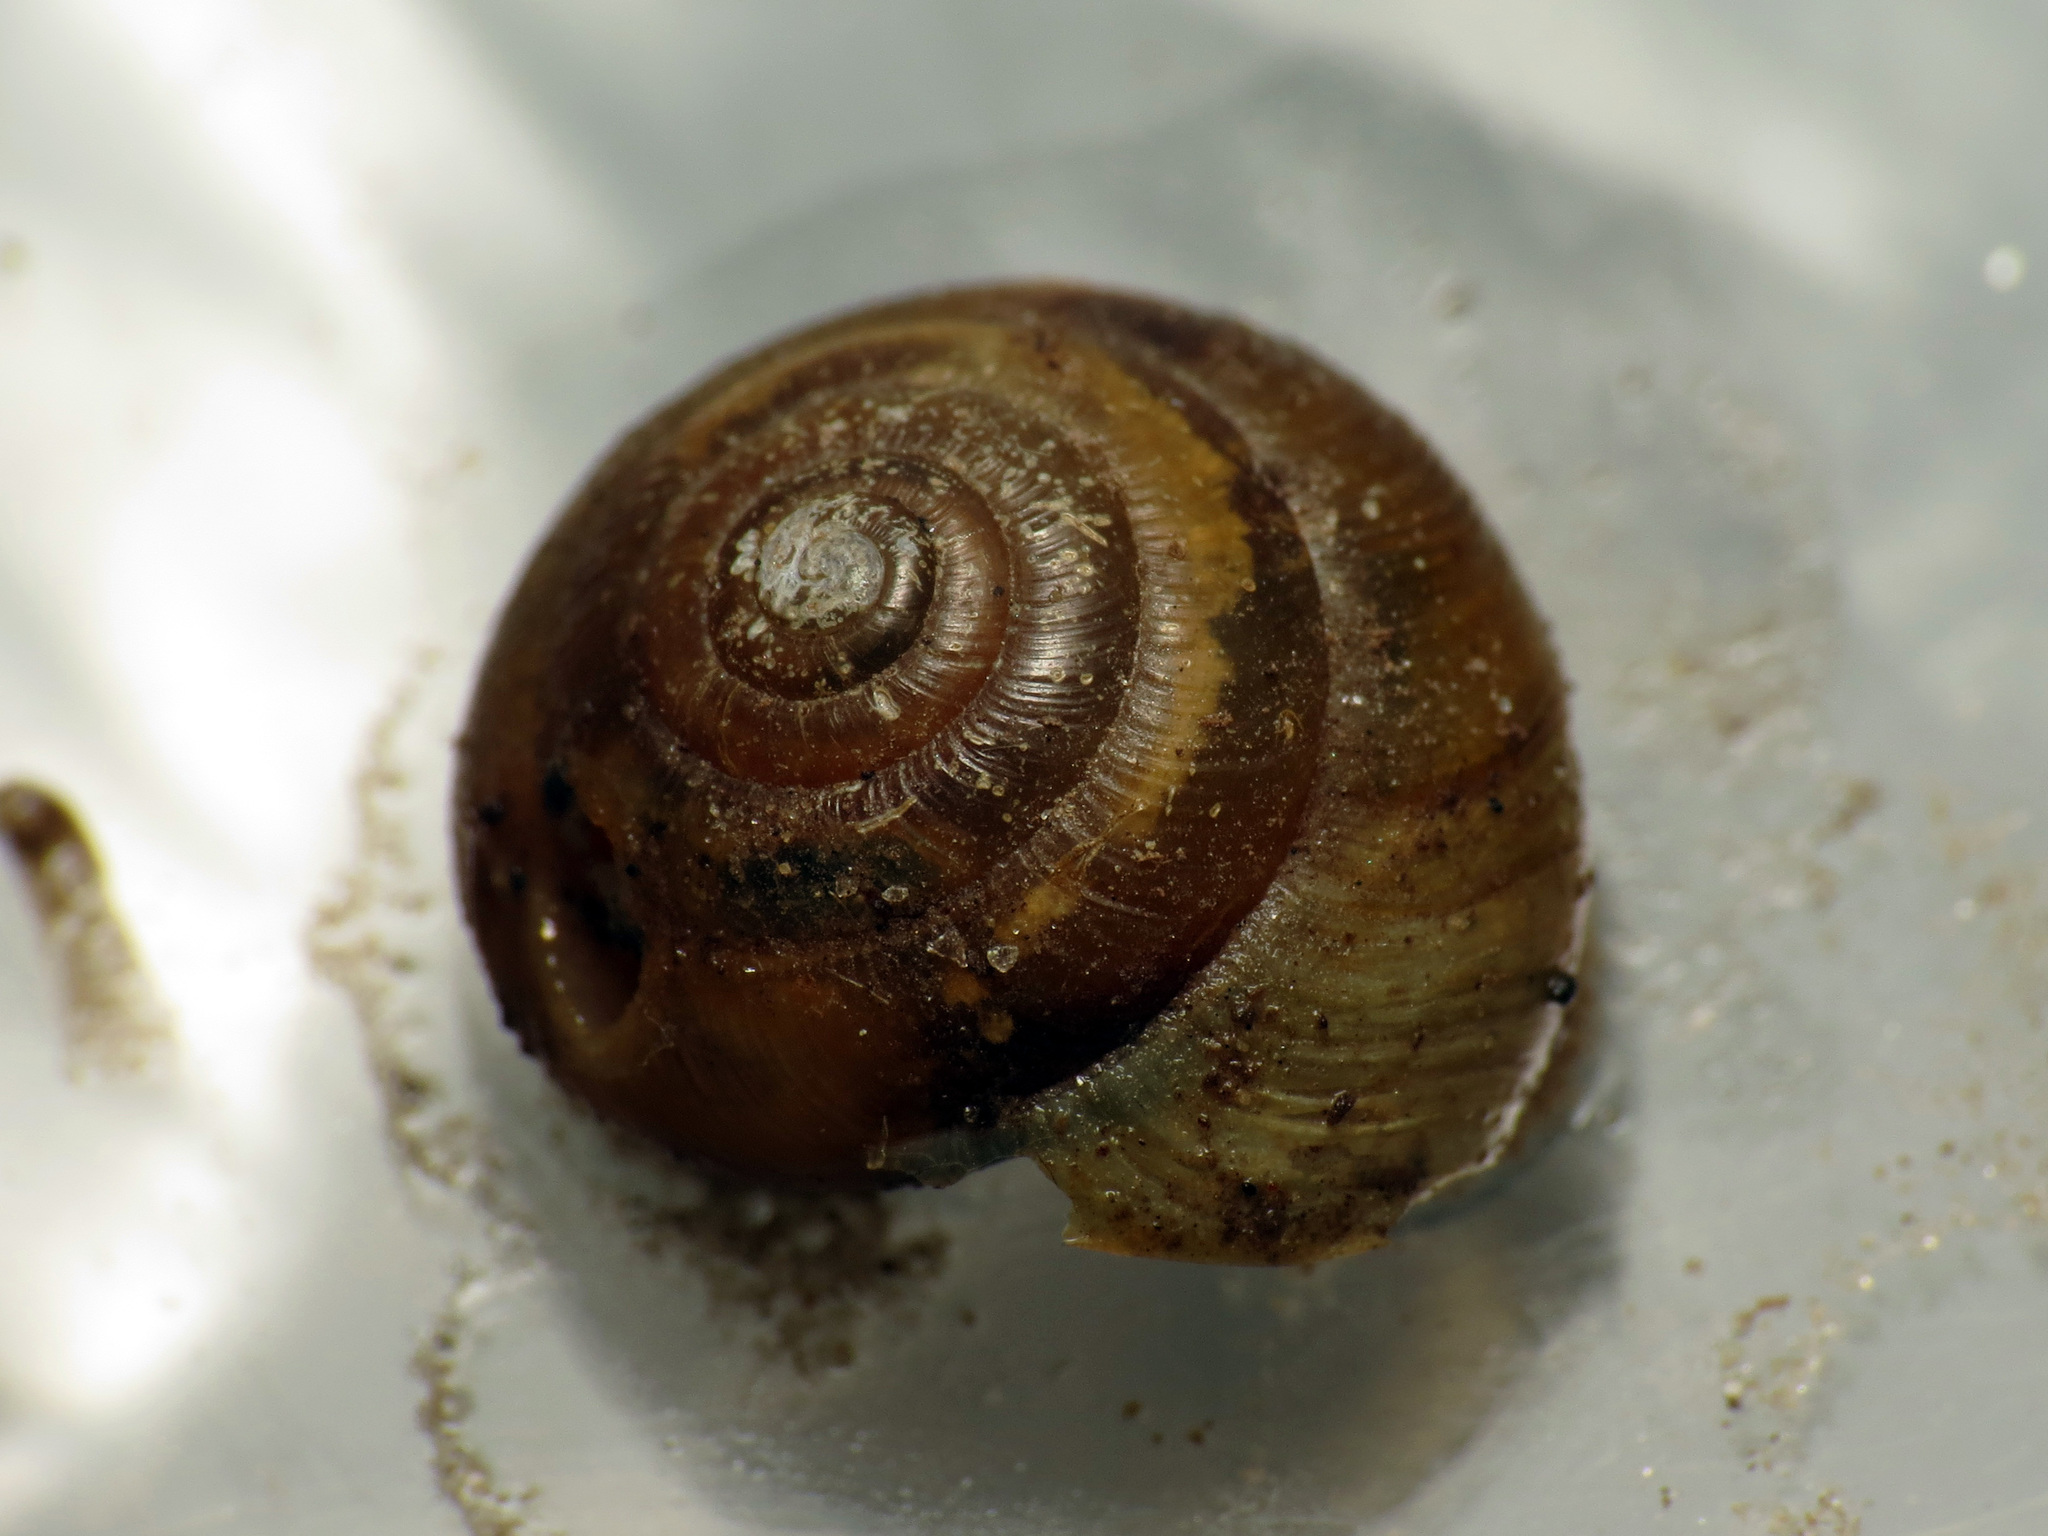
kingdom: Animalia
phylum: Mollusca
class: Gastropoda
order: Stylommatophora
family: Gastrodontidae
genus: Ventridens
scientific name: Ventridens ligera
